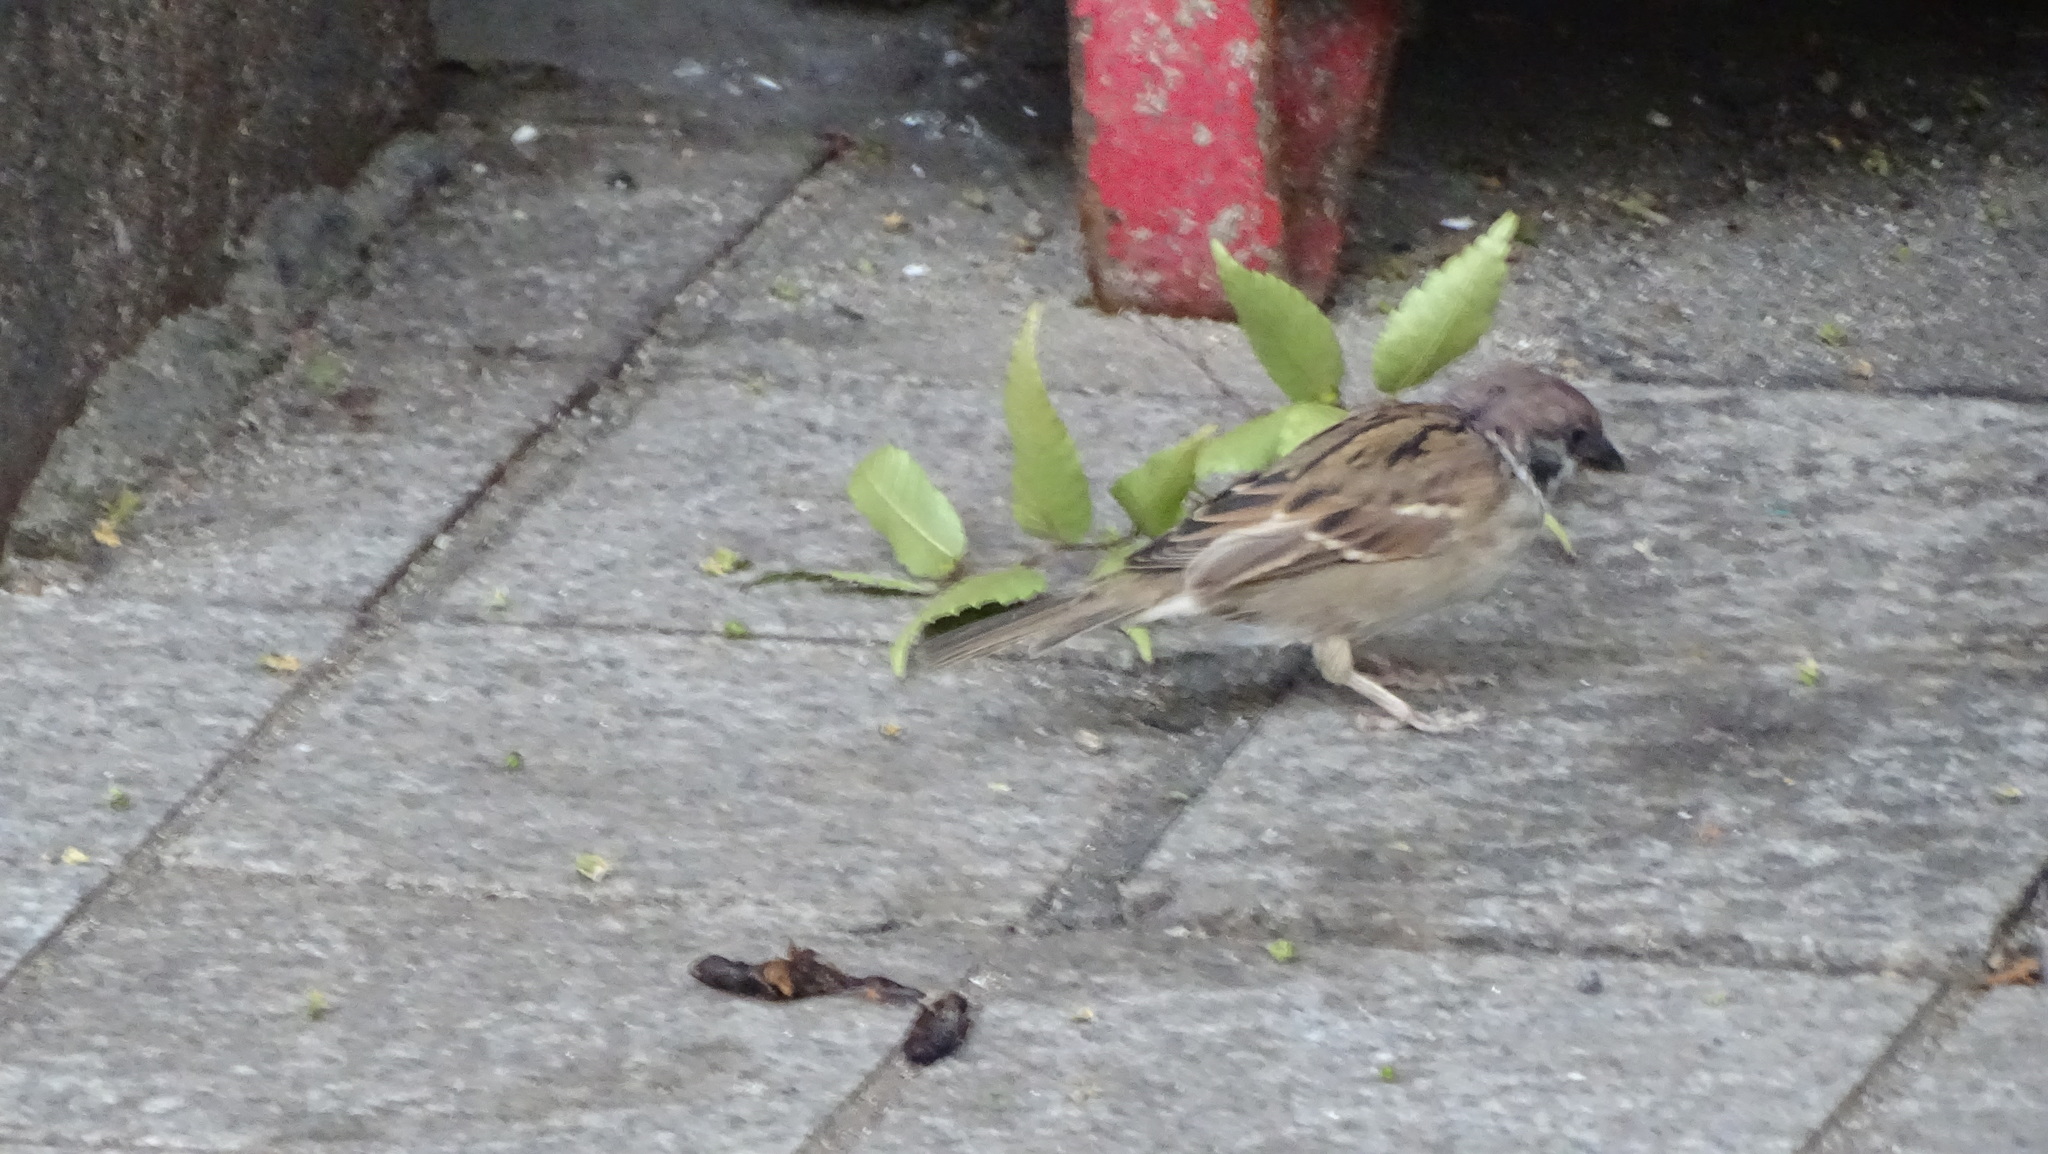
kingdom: Animalia
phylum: Chordata
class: Aves
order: Passeriformes
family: Passeridae
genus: Passer
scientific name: Passer montanus
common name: Eurasian tree sparrow
